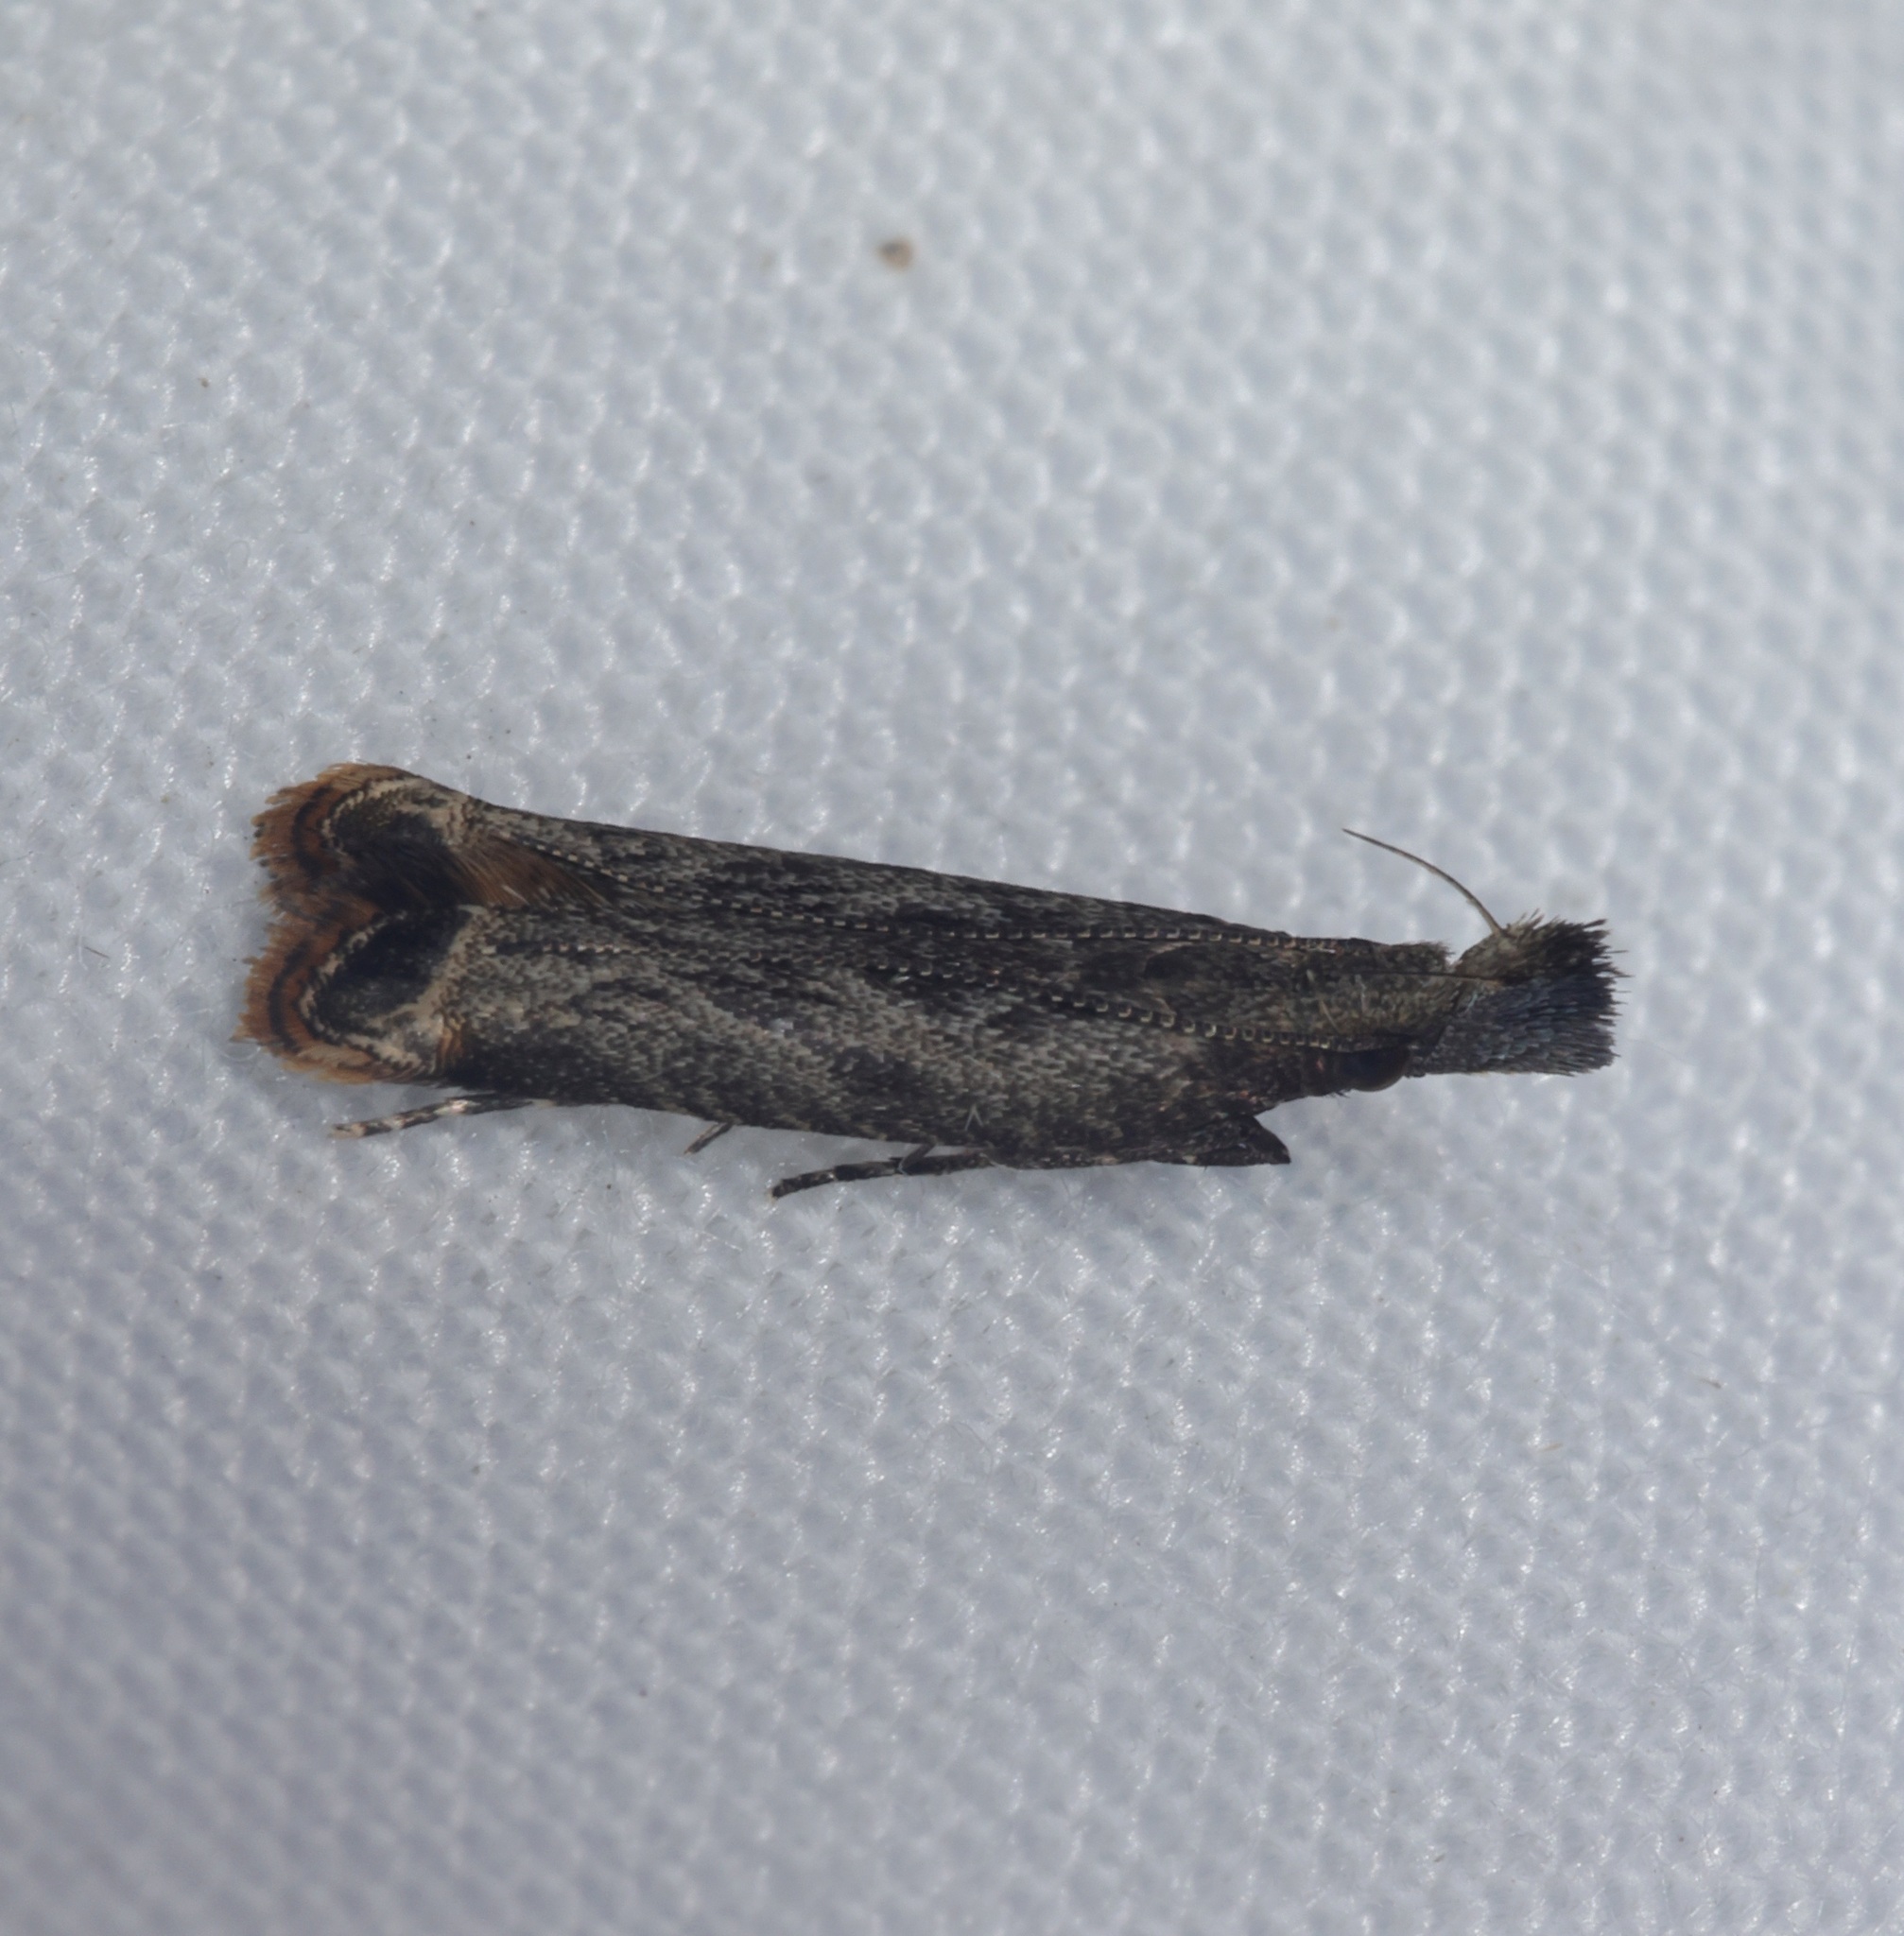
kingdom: Animalia
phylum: Arthropoda
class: Insecta
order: Lepidoptera
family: Gelechiidae
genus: Dichomeris
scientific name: Dichomeris davisi
